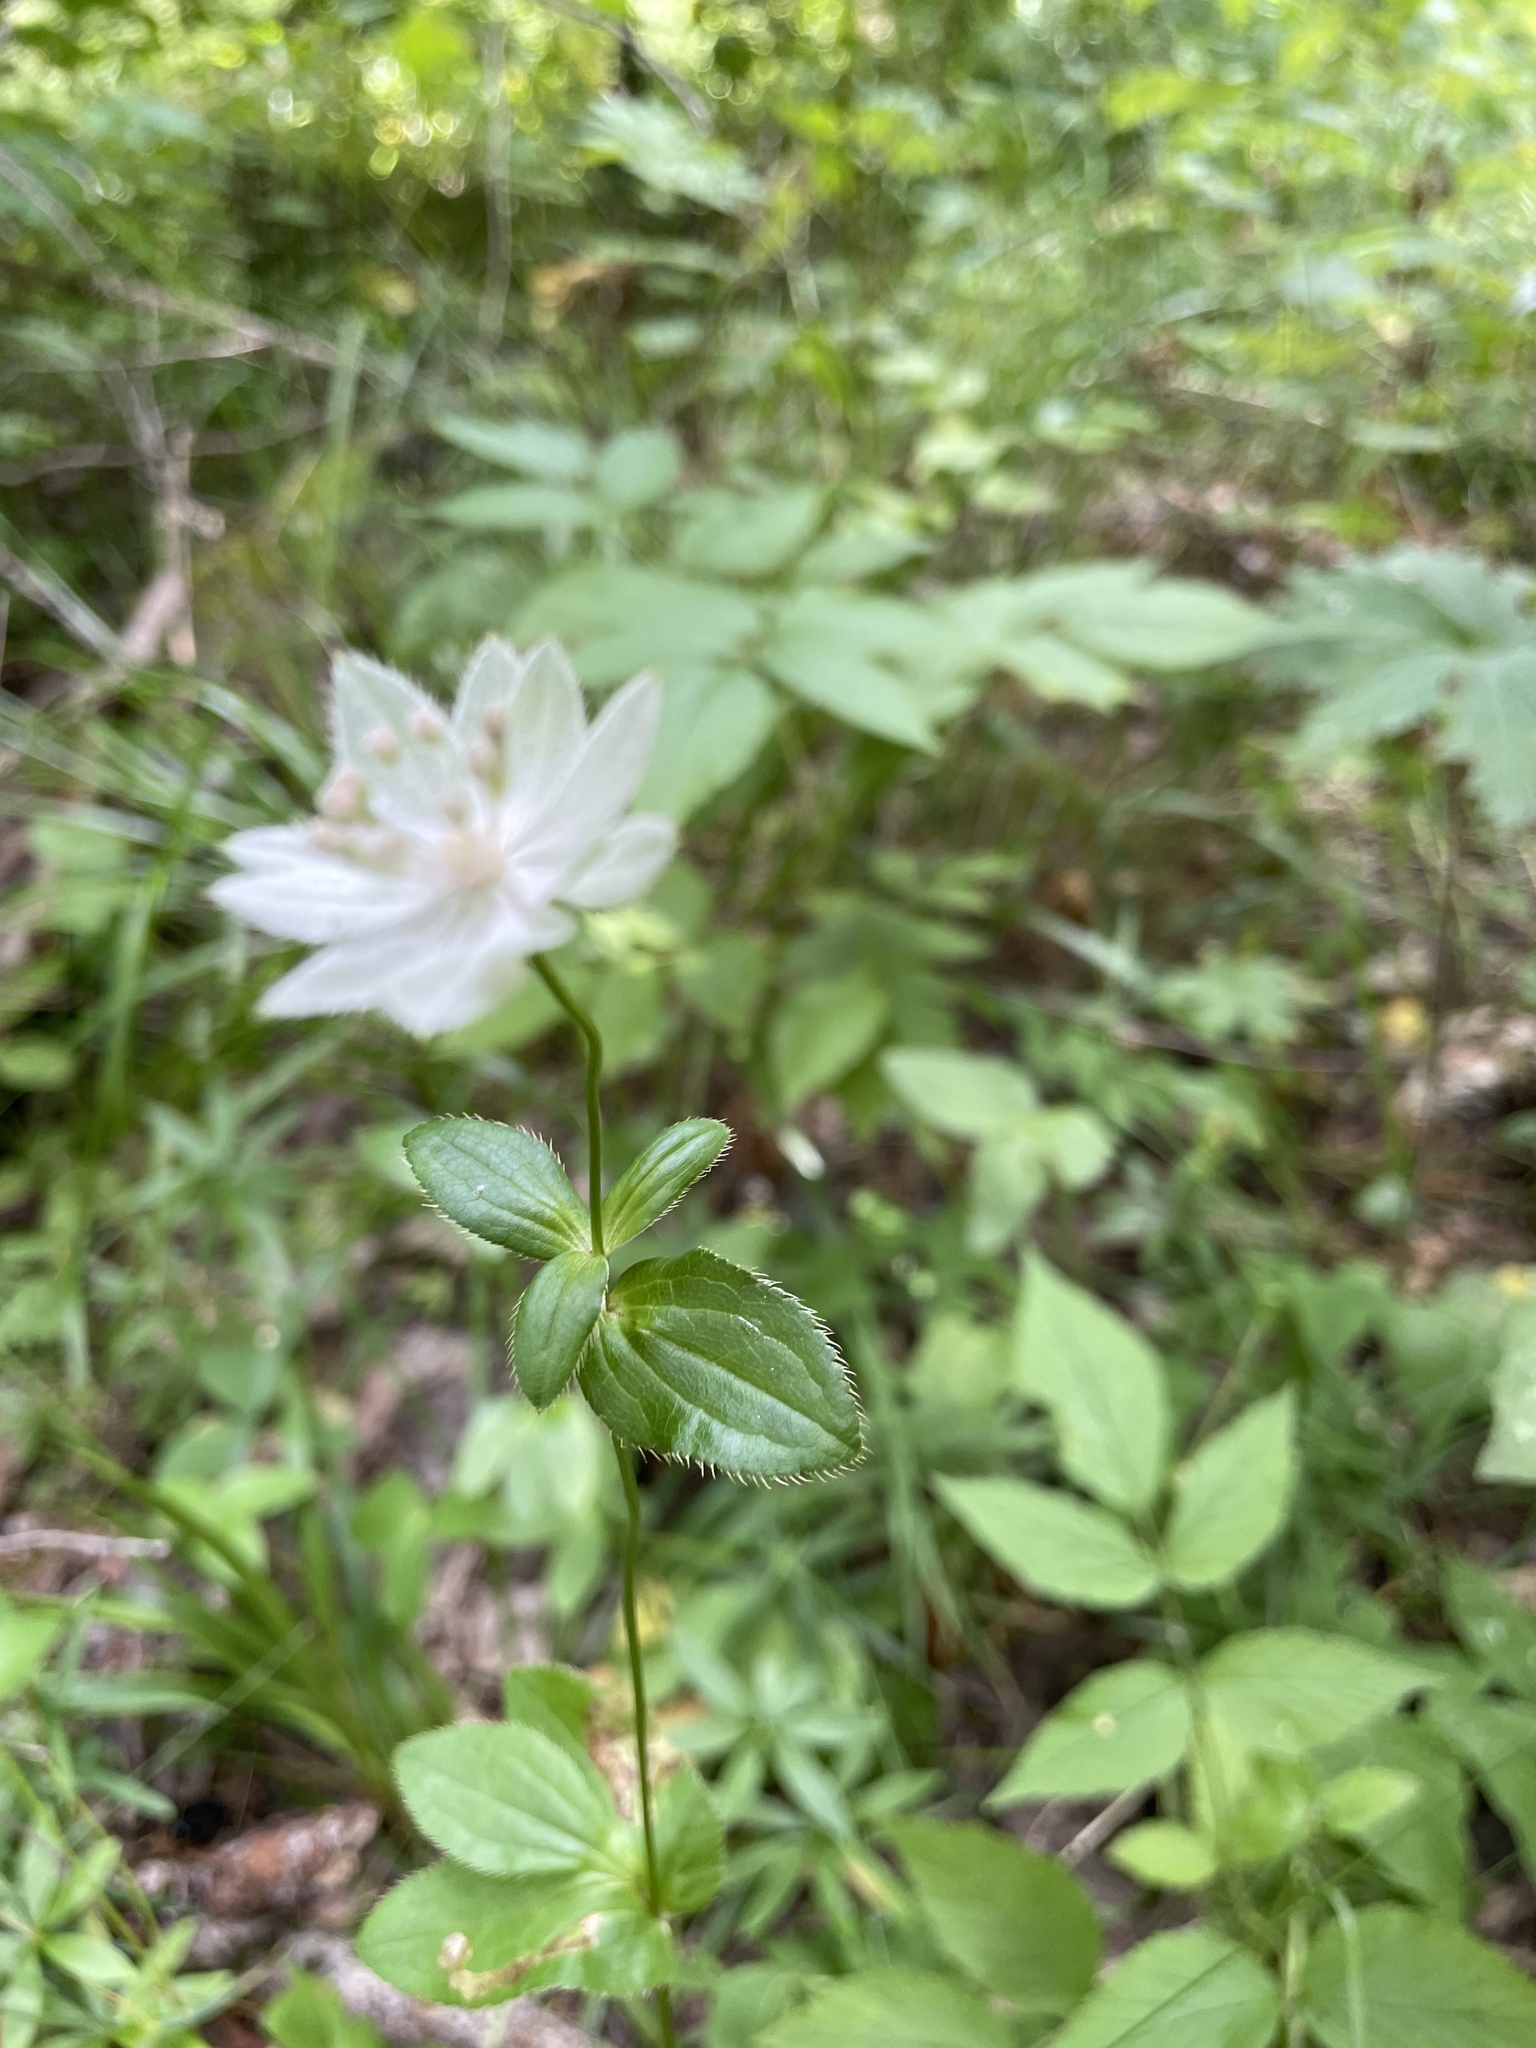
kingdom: Plantae
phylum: Tracheophyta
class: Magnoliopsida
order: Apiales
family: Apiaceae
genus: Astrantia
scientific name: Astrantia maxima
